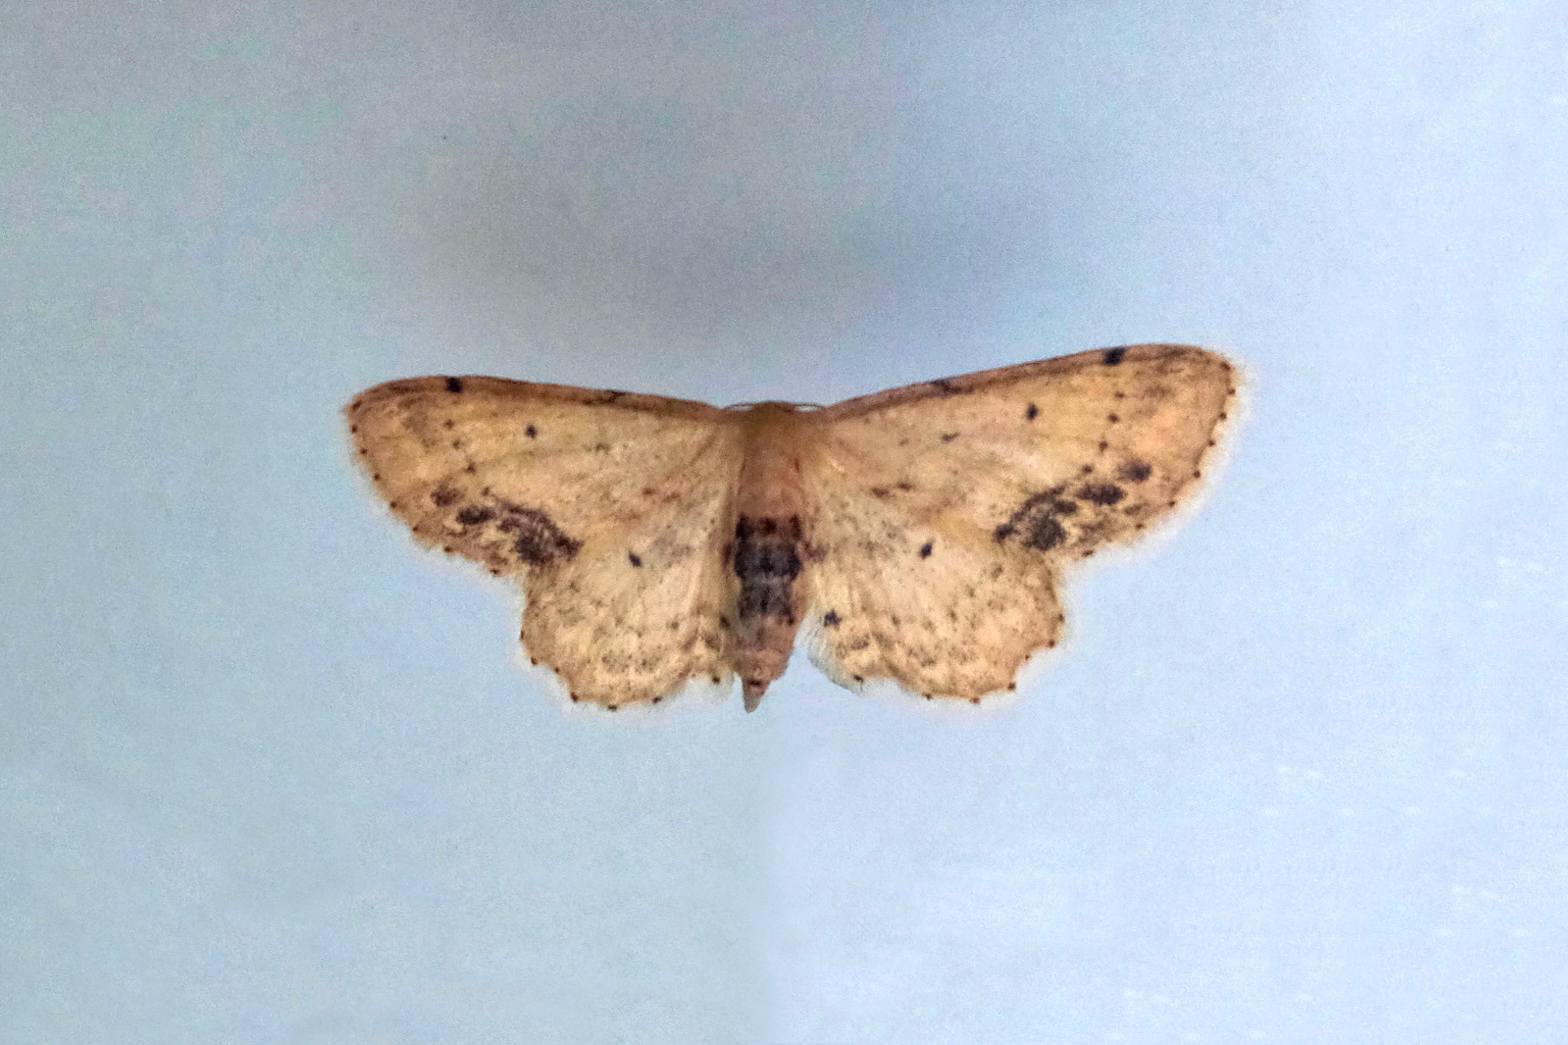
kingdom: Animalia
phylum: Arthropoda
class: Insecta
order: Lepidoptera
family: Geometridae
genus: Idaea
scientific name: Idaea dimidiata
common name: Single-dotted wave
